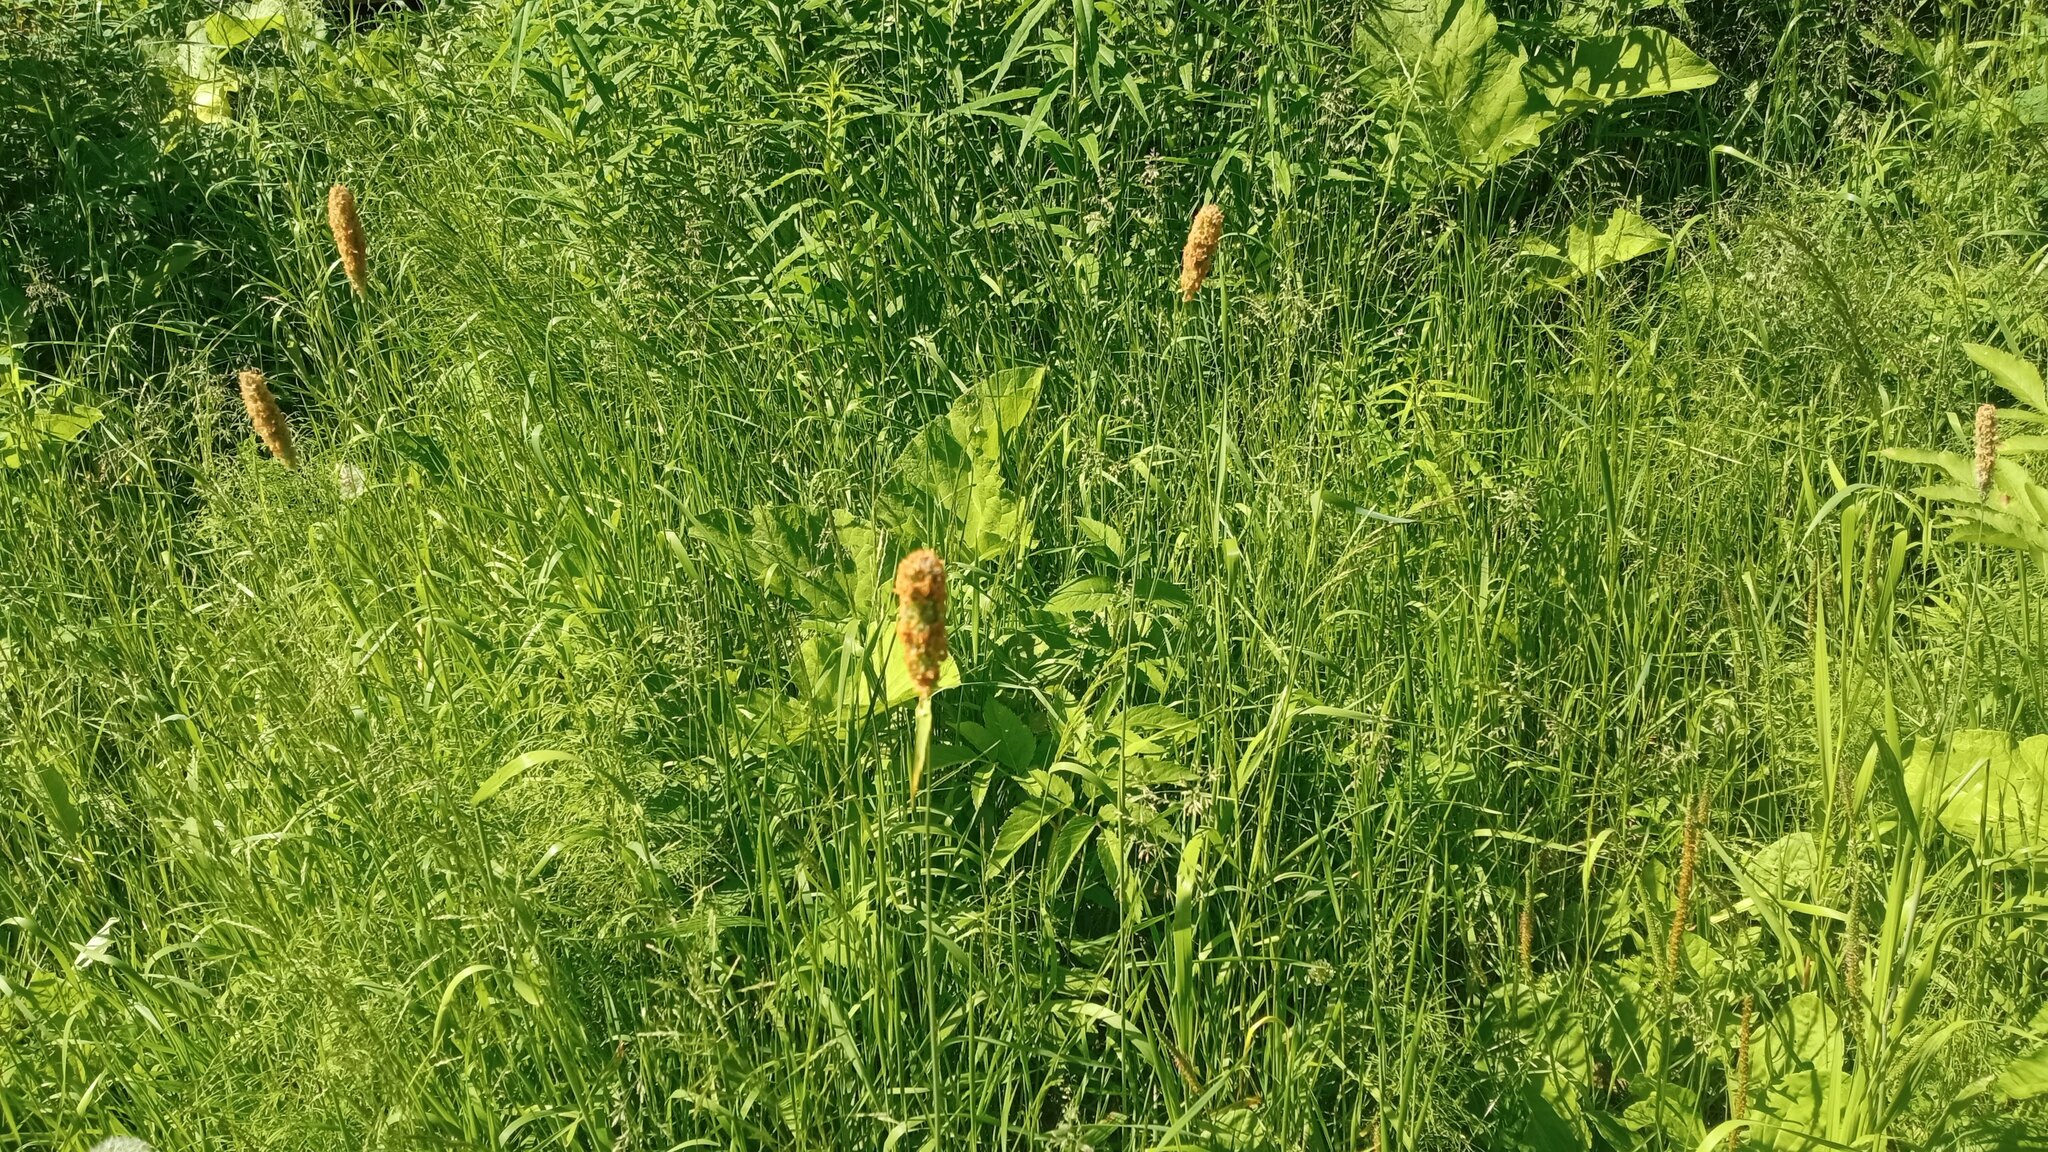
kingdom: Plantae
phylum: Tracheophyta
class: Liliopsida
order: Poales
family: Poaceae
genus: Phleum
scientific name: Phleum pratense
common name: Timothy grass
